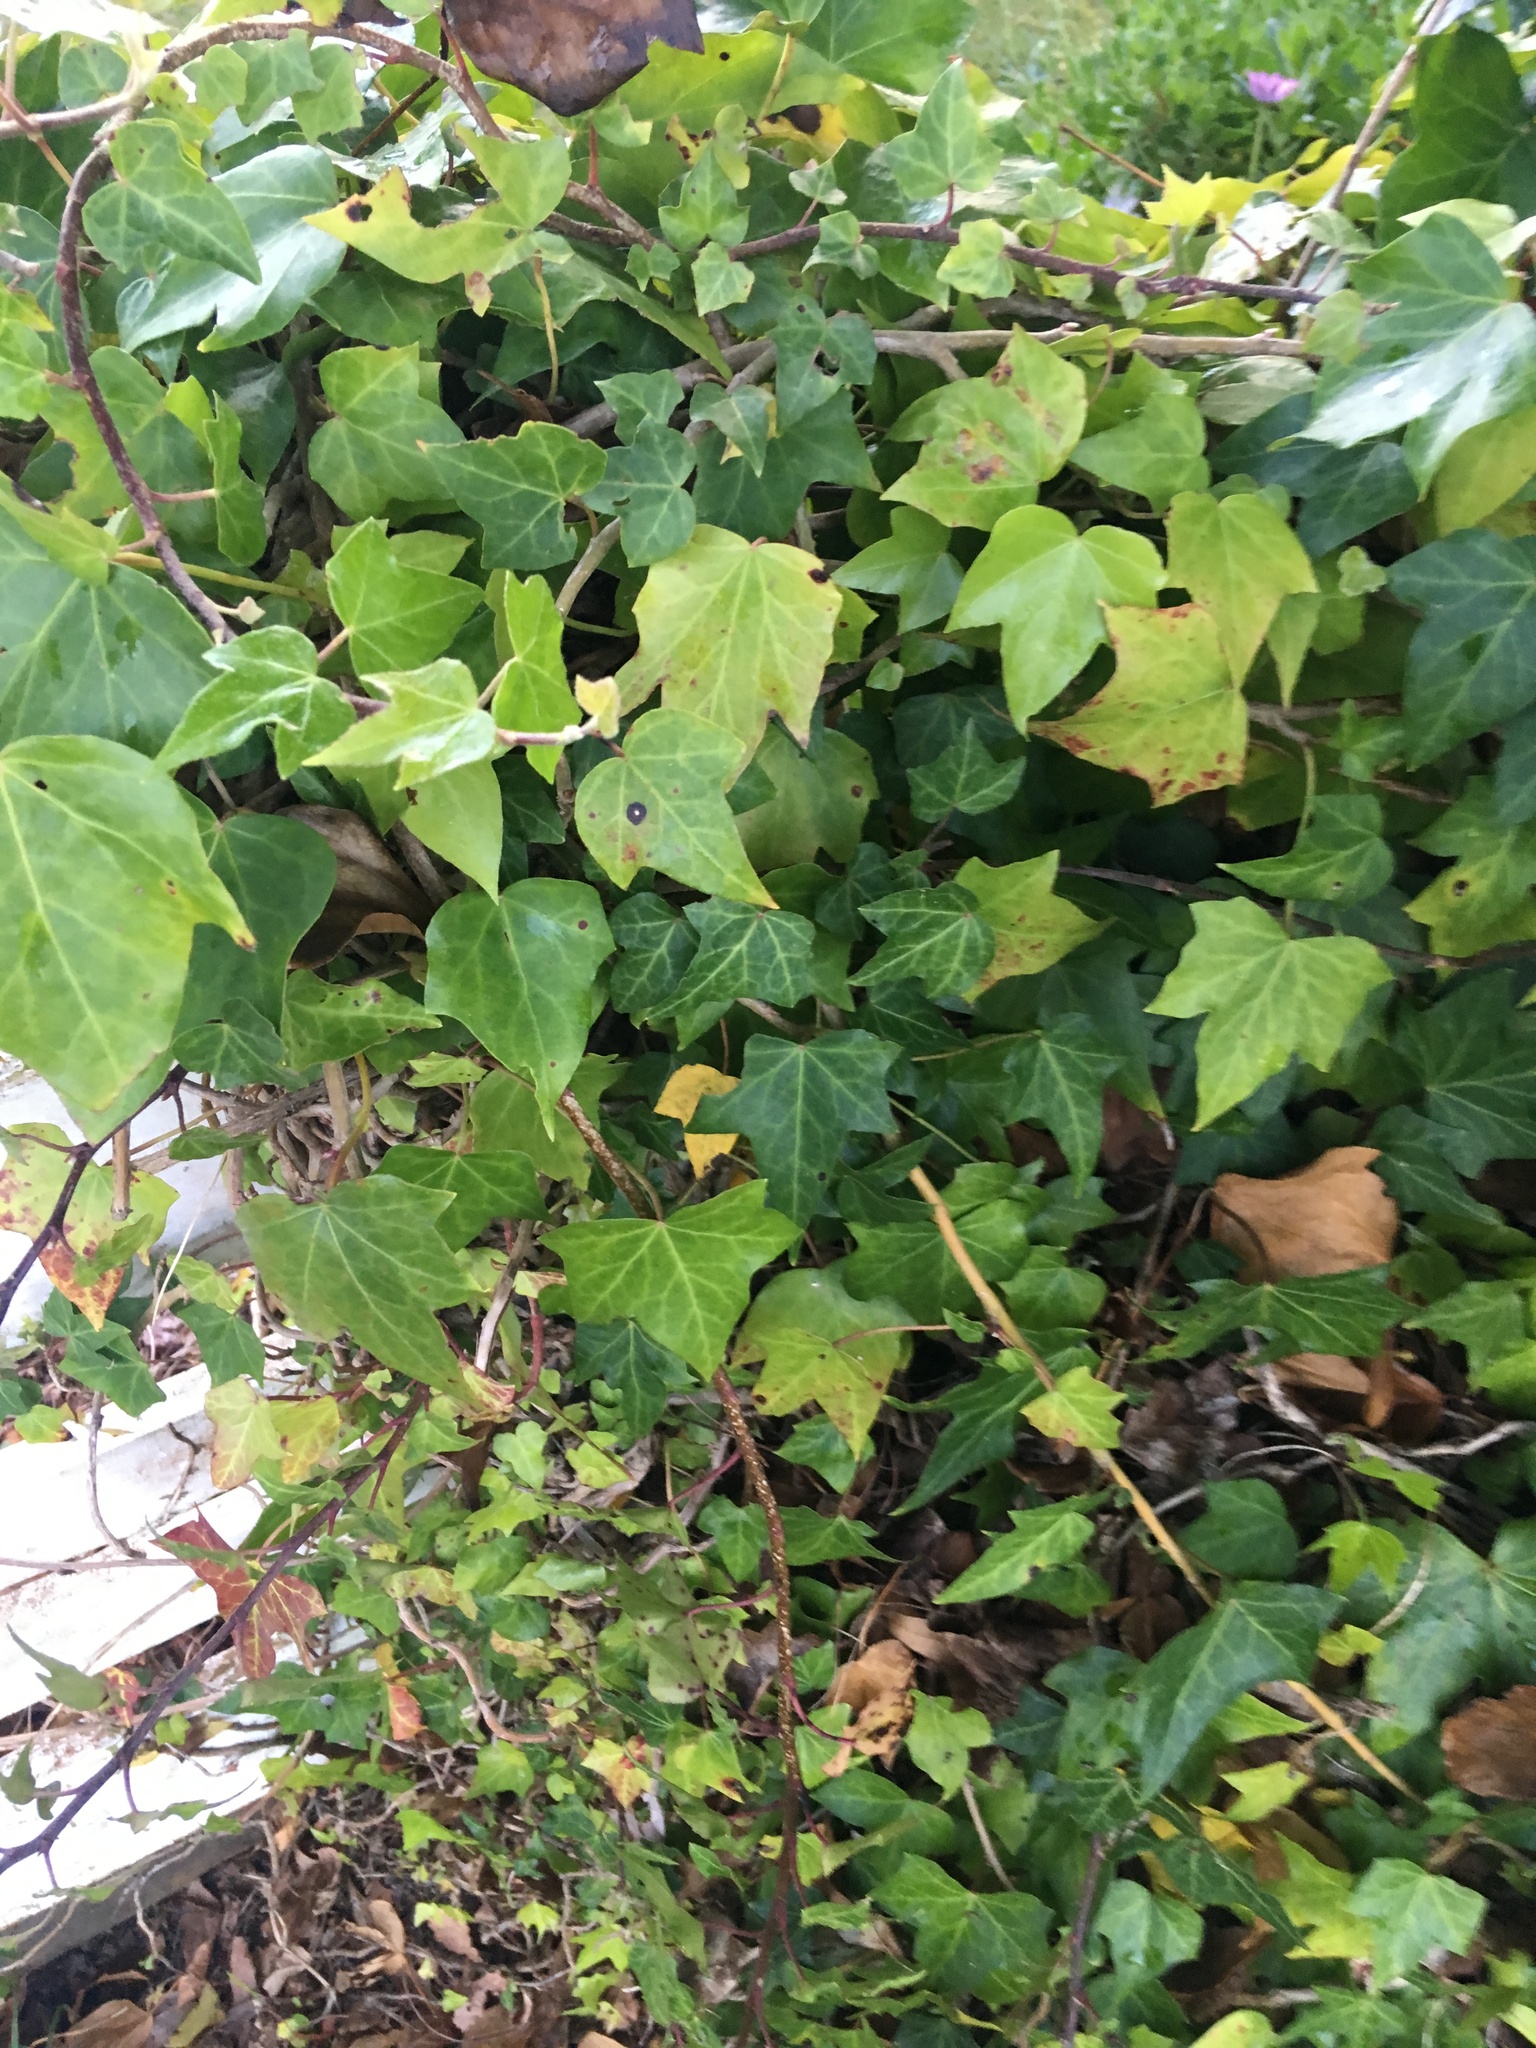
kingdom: Plantae
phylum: Tracheophyta
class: Magnoliopsida
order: Apiales
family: Araliaceae
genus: Hedera
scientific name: Hedera helix
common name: Ivy
